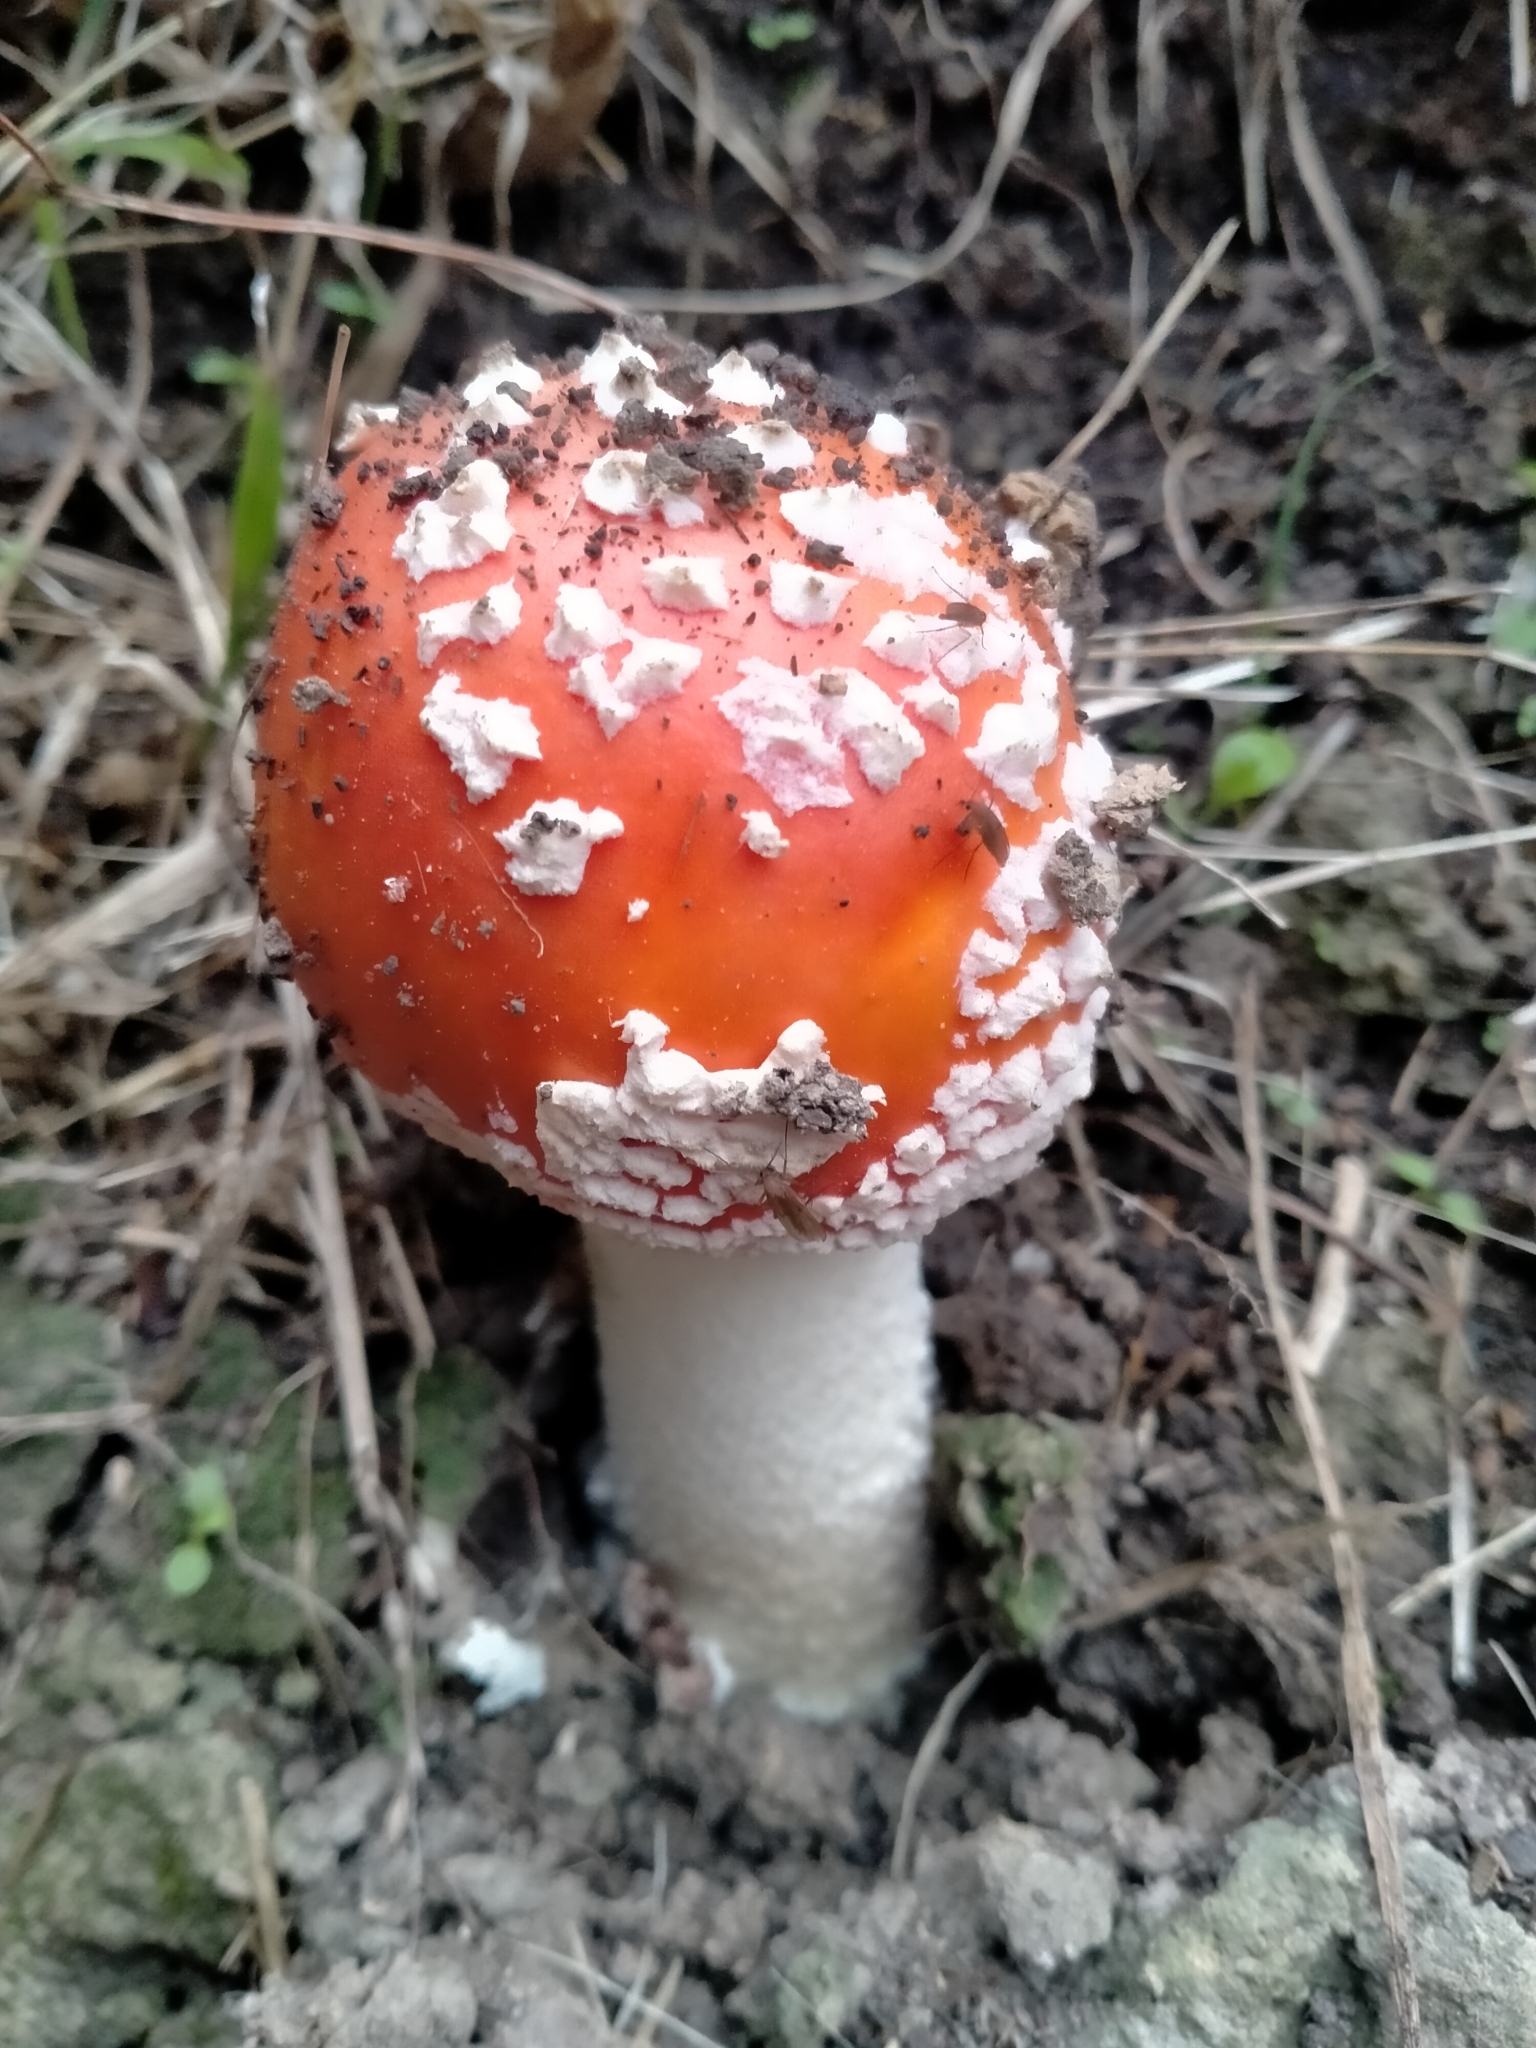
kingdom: Fungi
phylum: Basidiomycota
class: Agaricomycetes
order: Agaricales
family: Amanitaceae
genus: Amanita
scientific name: Amanita muscaria
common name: Fly agaric
